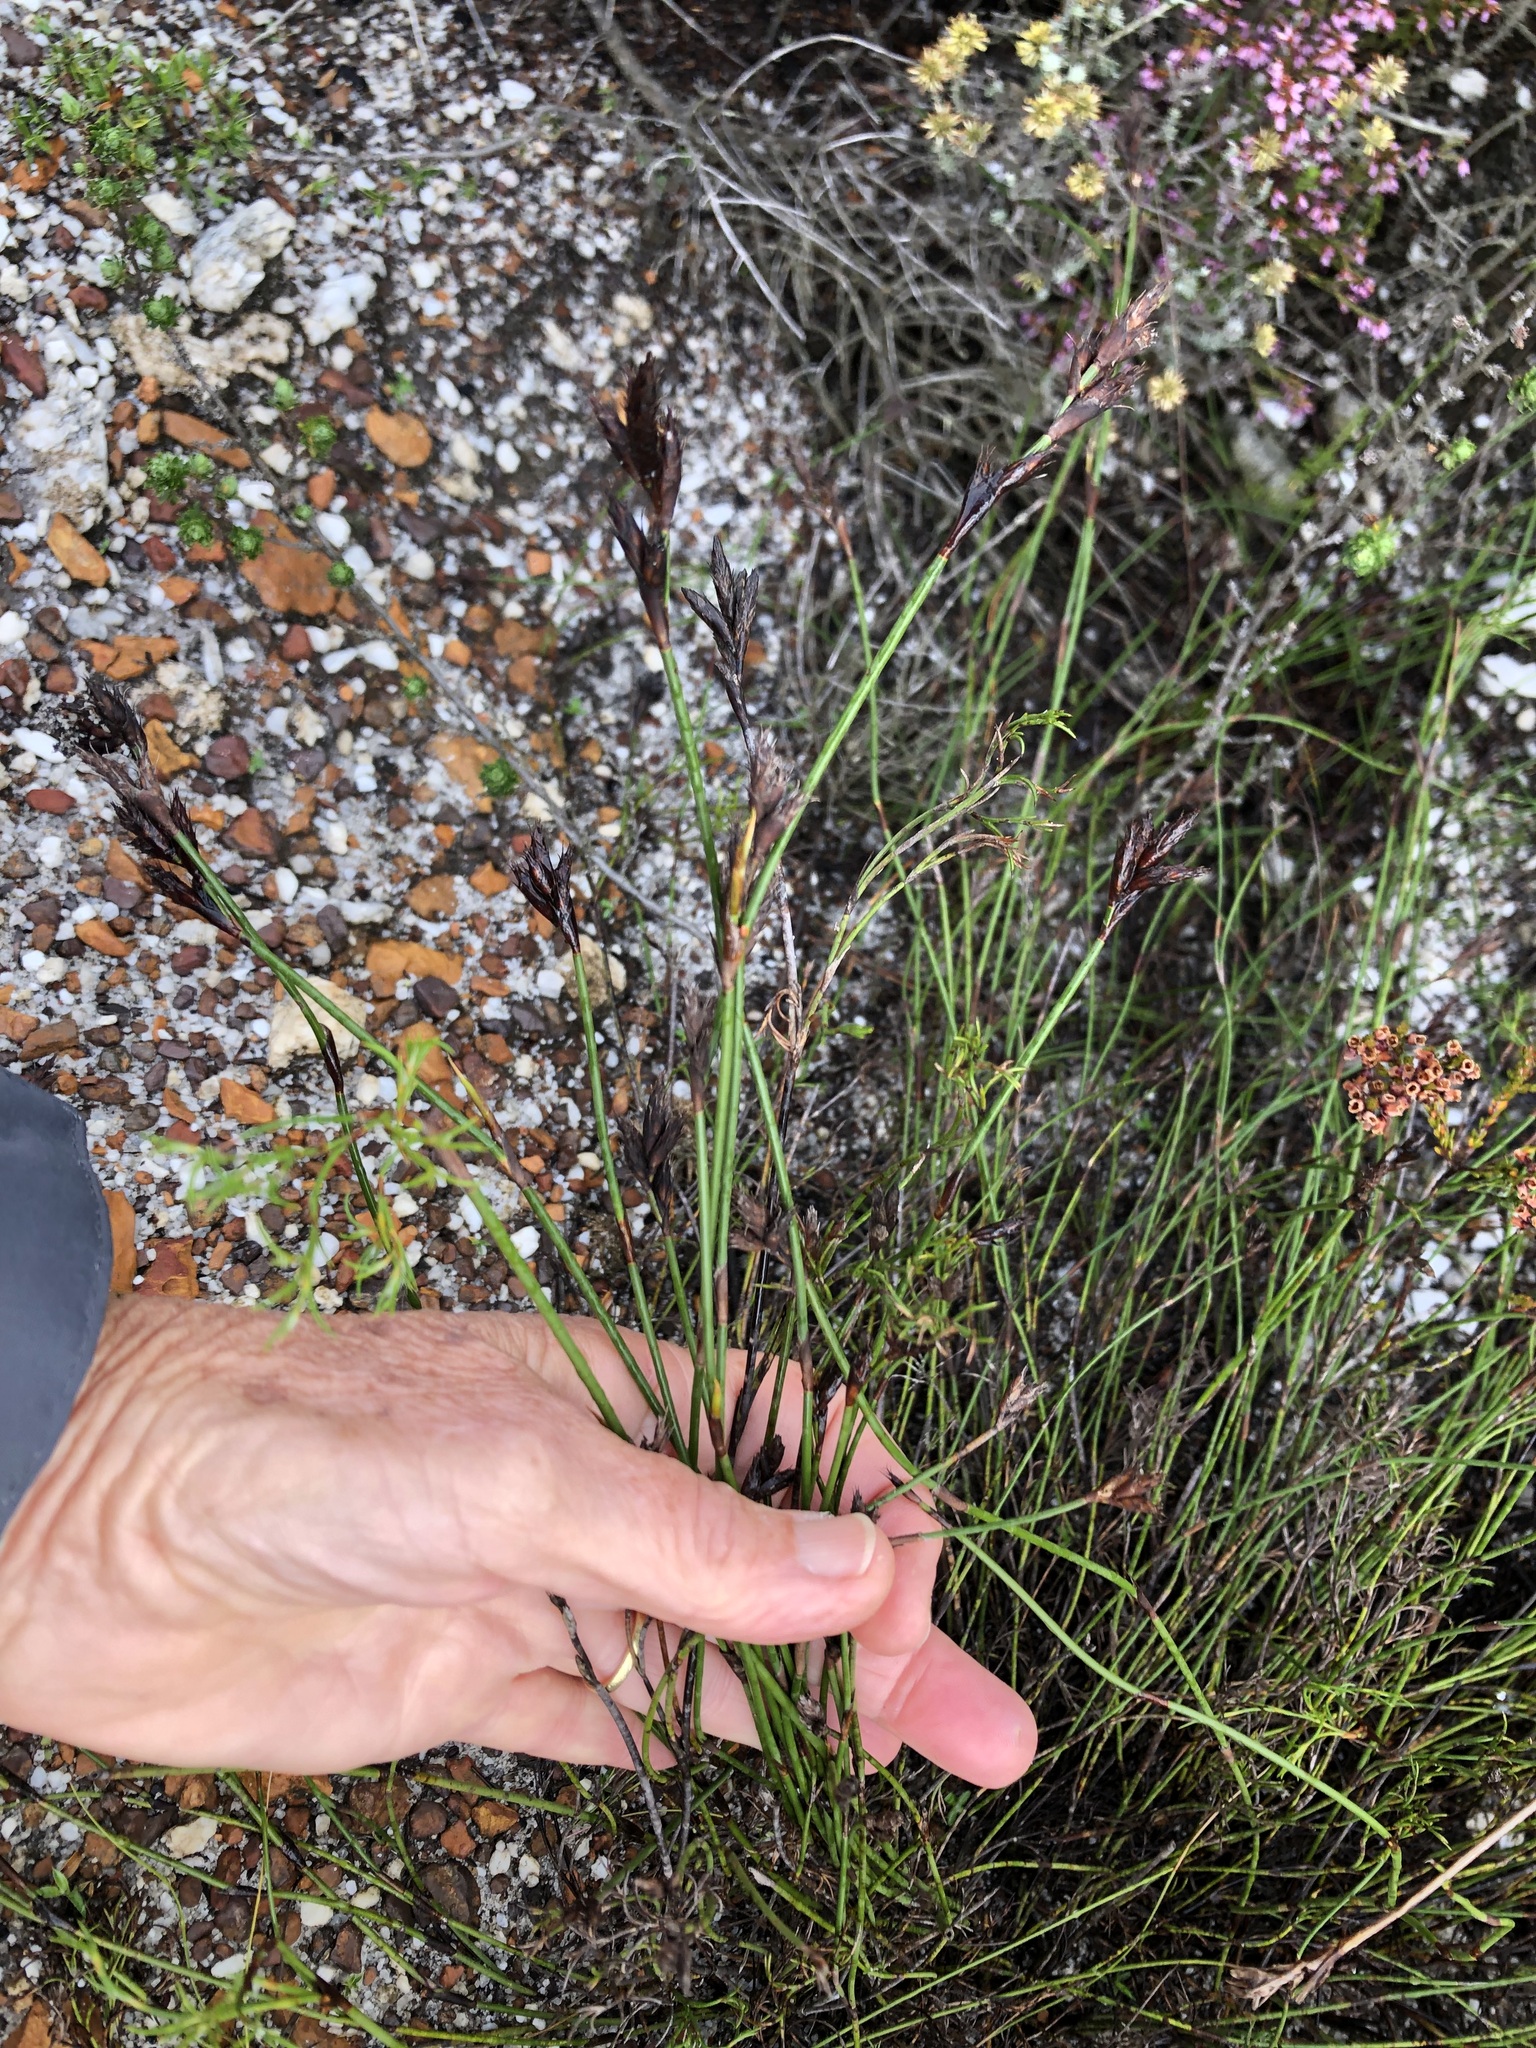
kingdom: Plantae
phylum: Tracheophyta
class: Liliopsida
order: Poales
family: Restionaceae
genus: Restio
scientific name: Restio capensis
